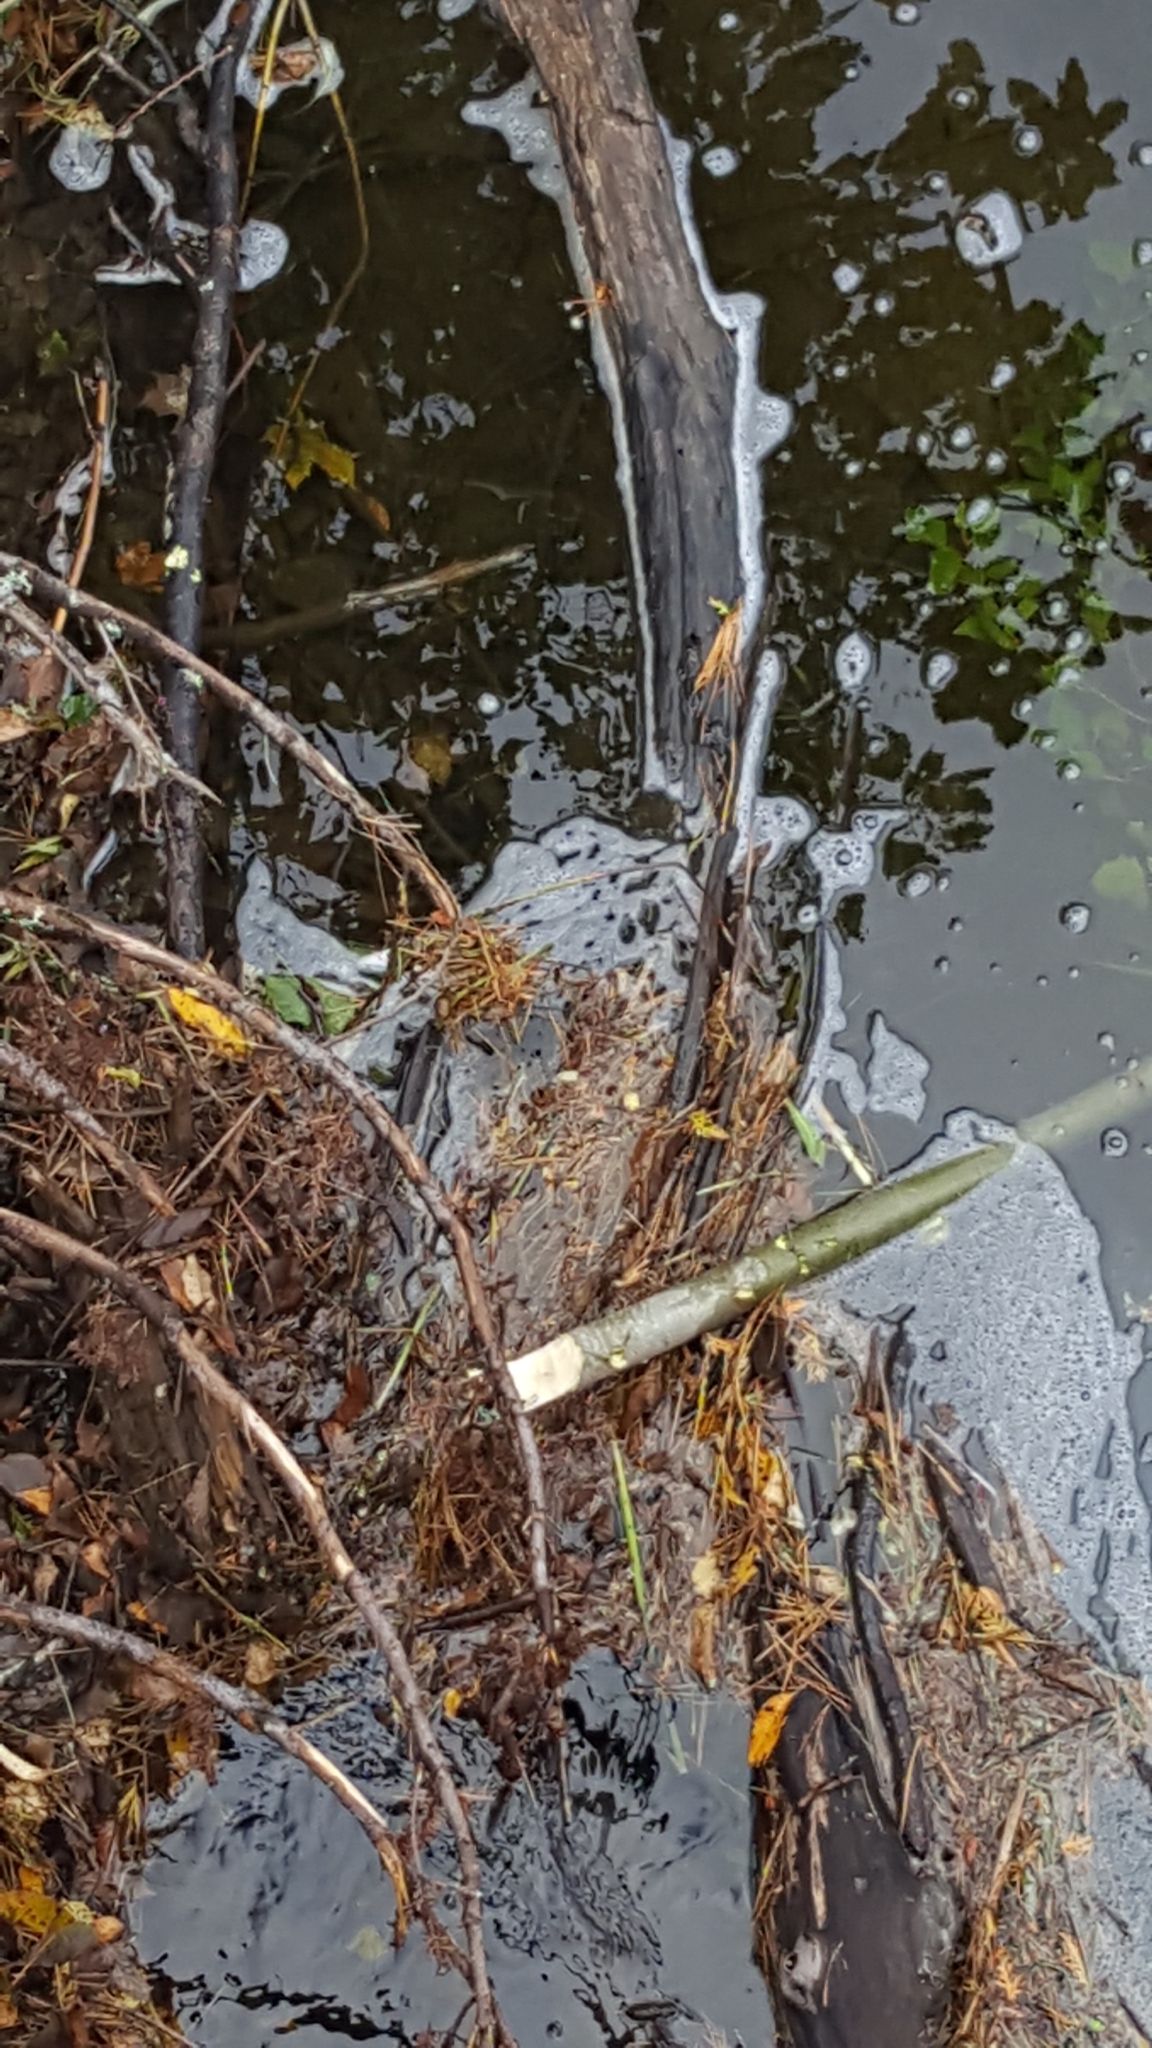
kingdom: Animalia
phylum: Chordata
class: Mammalia
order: Rodentia
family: Castoridae
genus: Castor
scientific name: Castor canadensis
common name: American beaver
